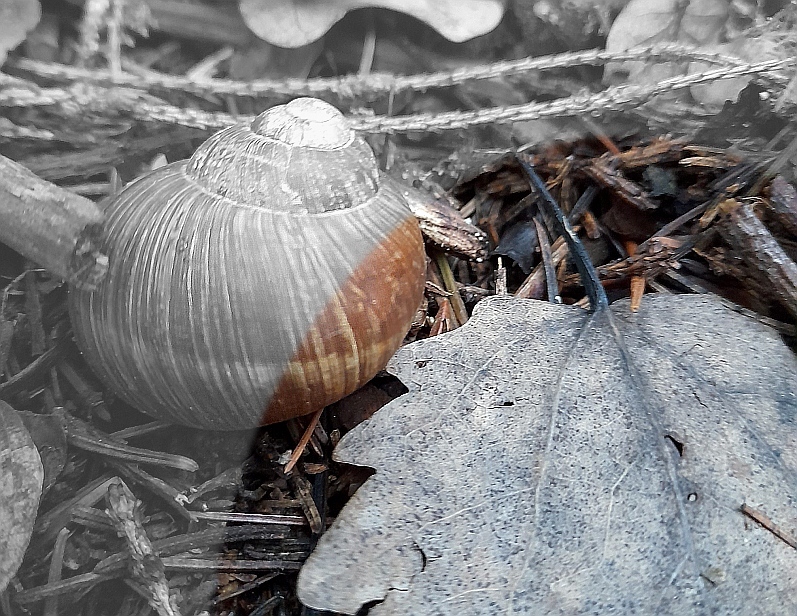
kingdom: Plantae
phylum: Tracheophyta
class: Magnoliopsida
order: Malpighiales
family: Salicaceae
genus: Populus
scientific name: Populus tremula
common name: European aspen
